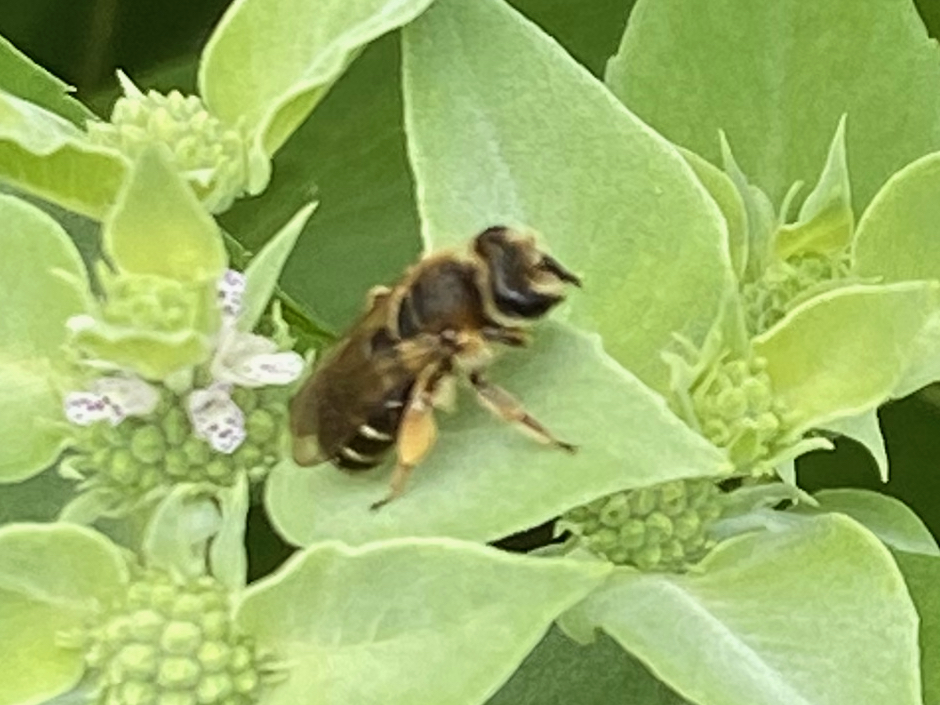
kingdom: Animalia
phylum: Arthropoda
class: Insecta
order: Hymenoptera
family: Andrenidae
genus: Andrena
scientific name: Andrena wilkella
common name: Wilke's mining bee
